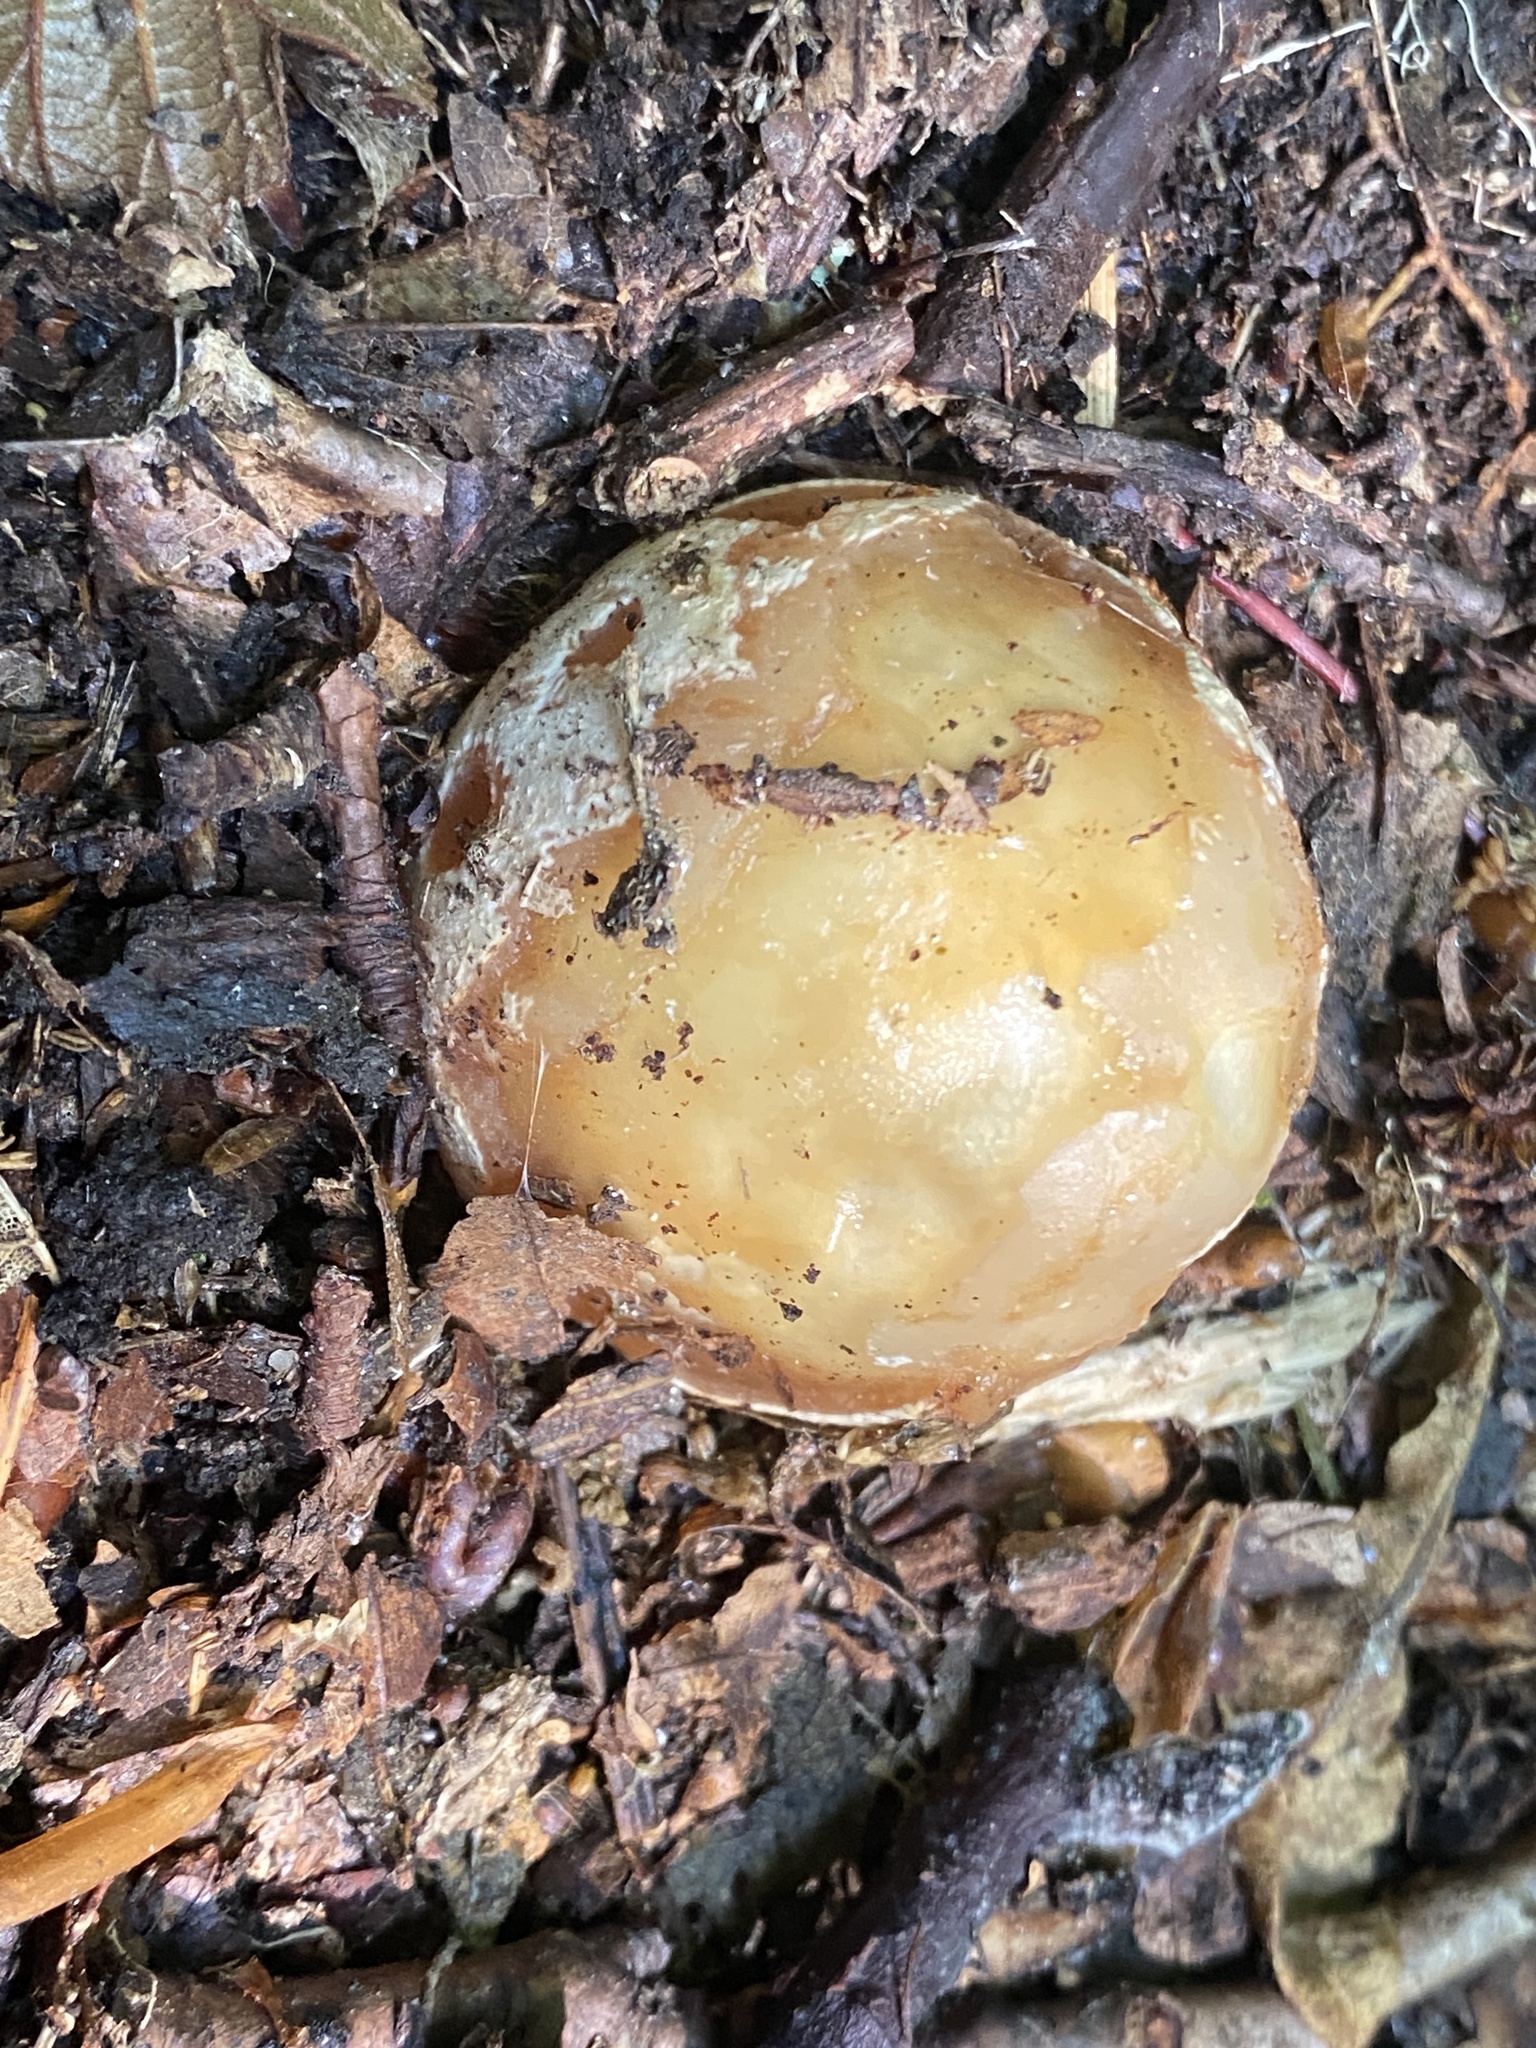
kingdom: Fungi
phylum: Basidiomycota
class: Agaricomycetes
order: Phallales
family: Phallaceae
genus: Phallus
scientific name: Phallus impudicus
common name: Common stinkhorn
